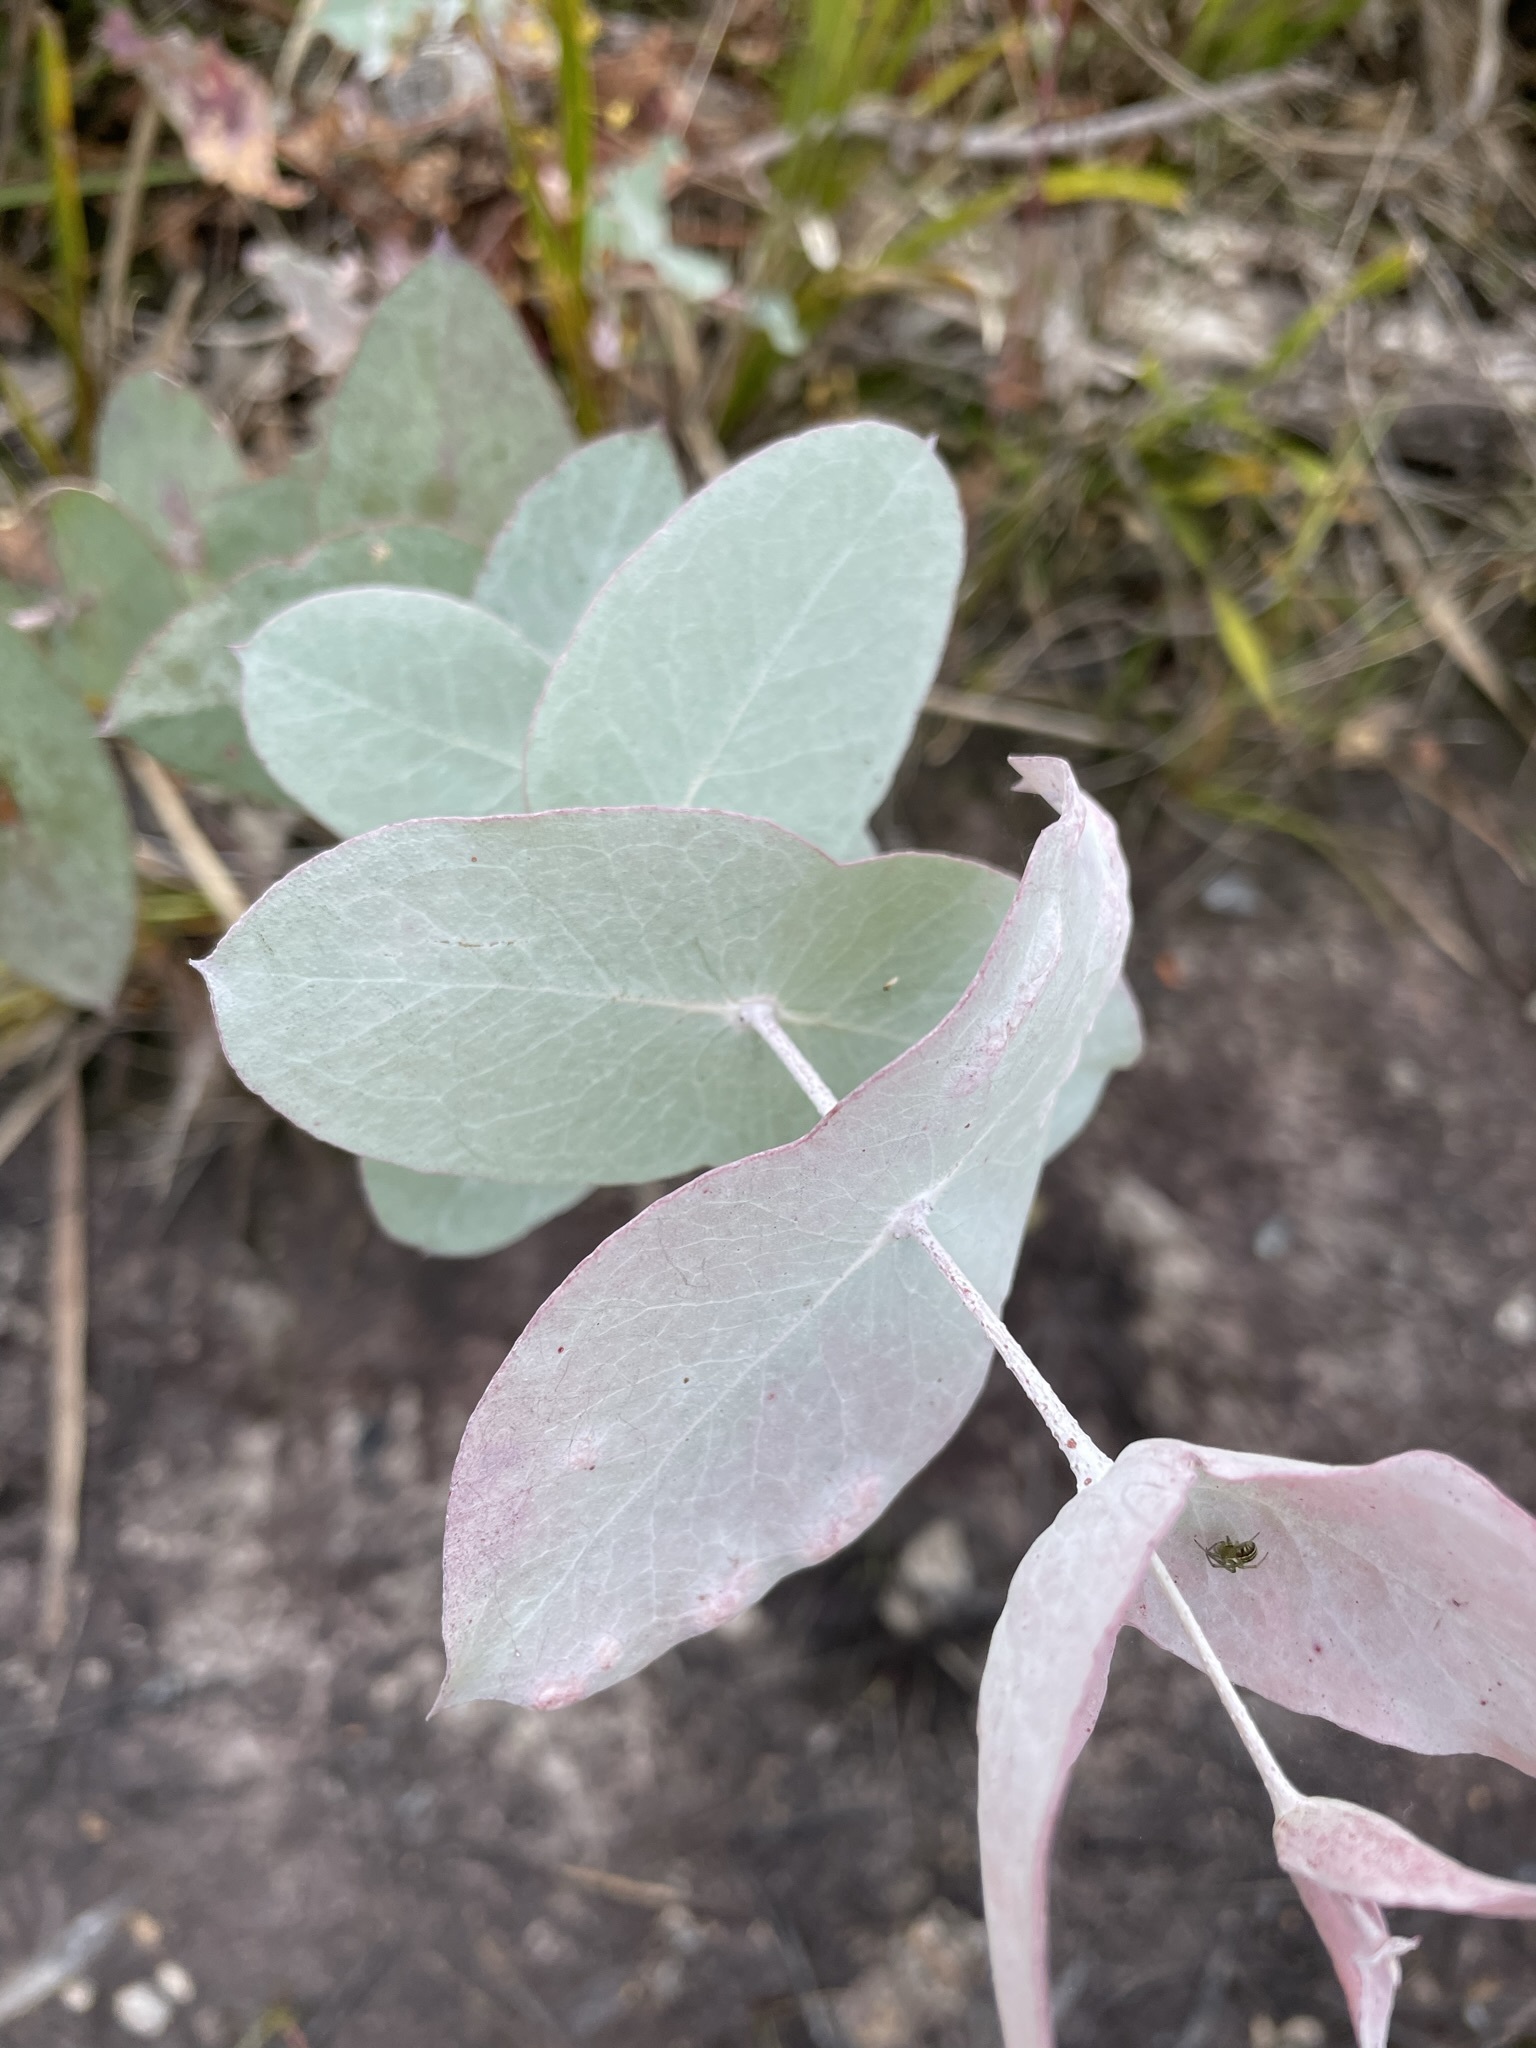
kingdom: Plantae
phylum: Tracheophyta
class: Magnoliopsida
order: Myrtales
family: Myrtaceae
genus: Eucalyptus
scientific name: Eucalyptus tenuiramis
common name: Silver peppermint
